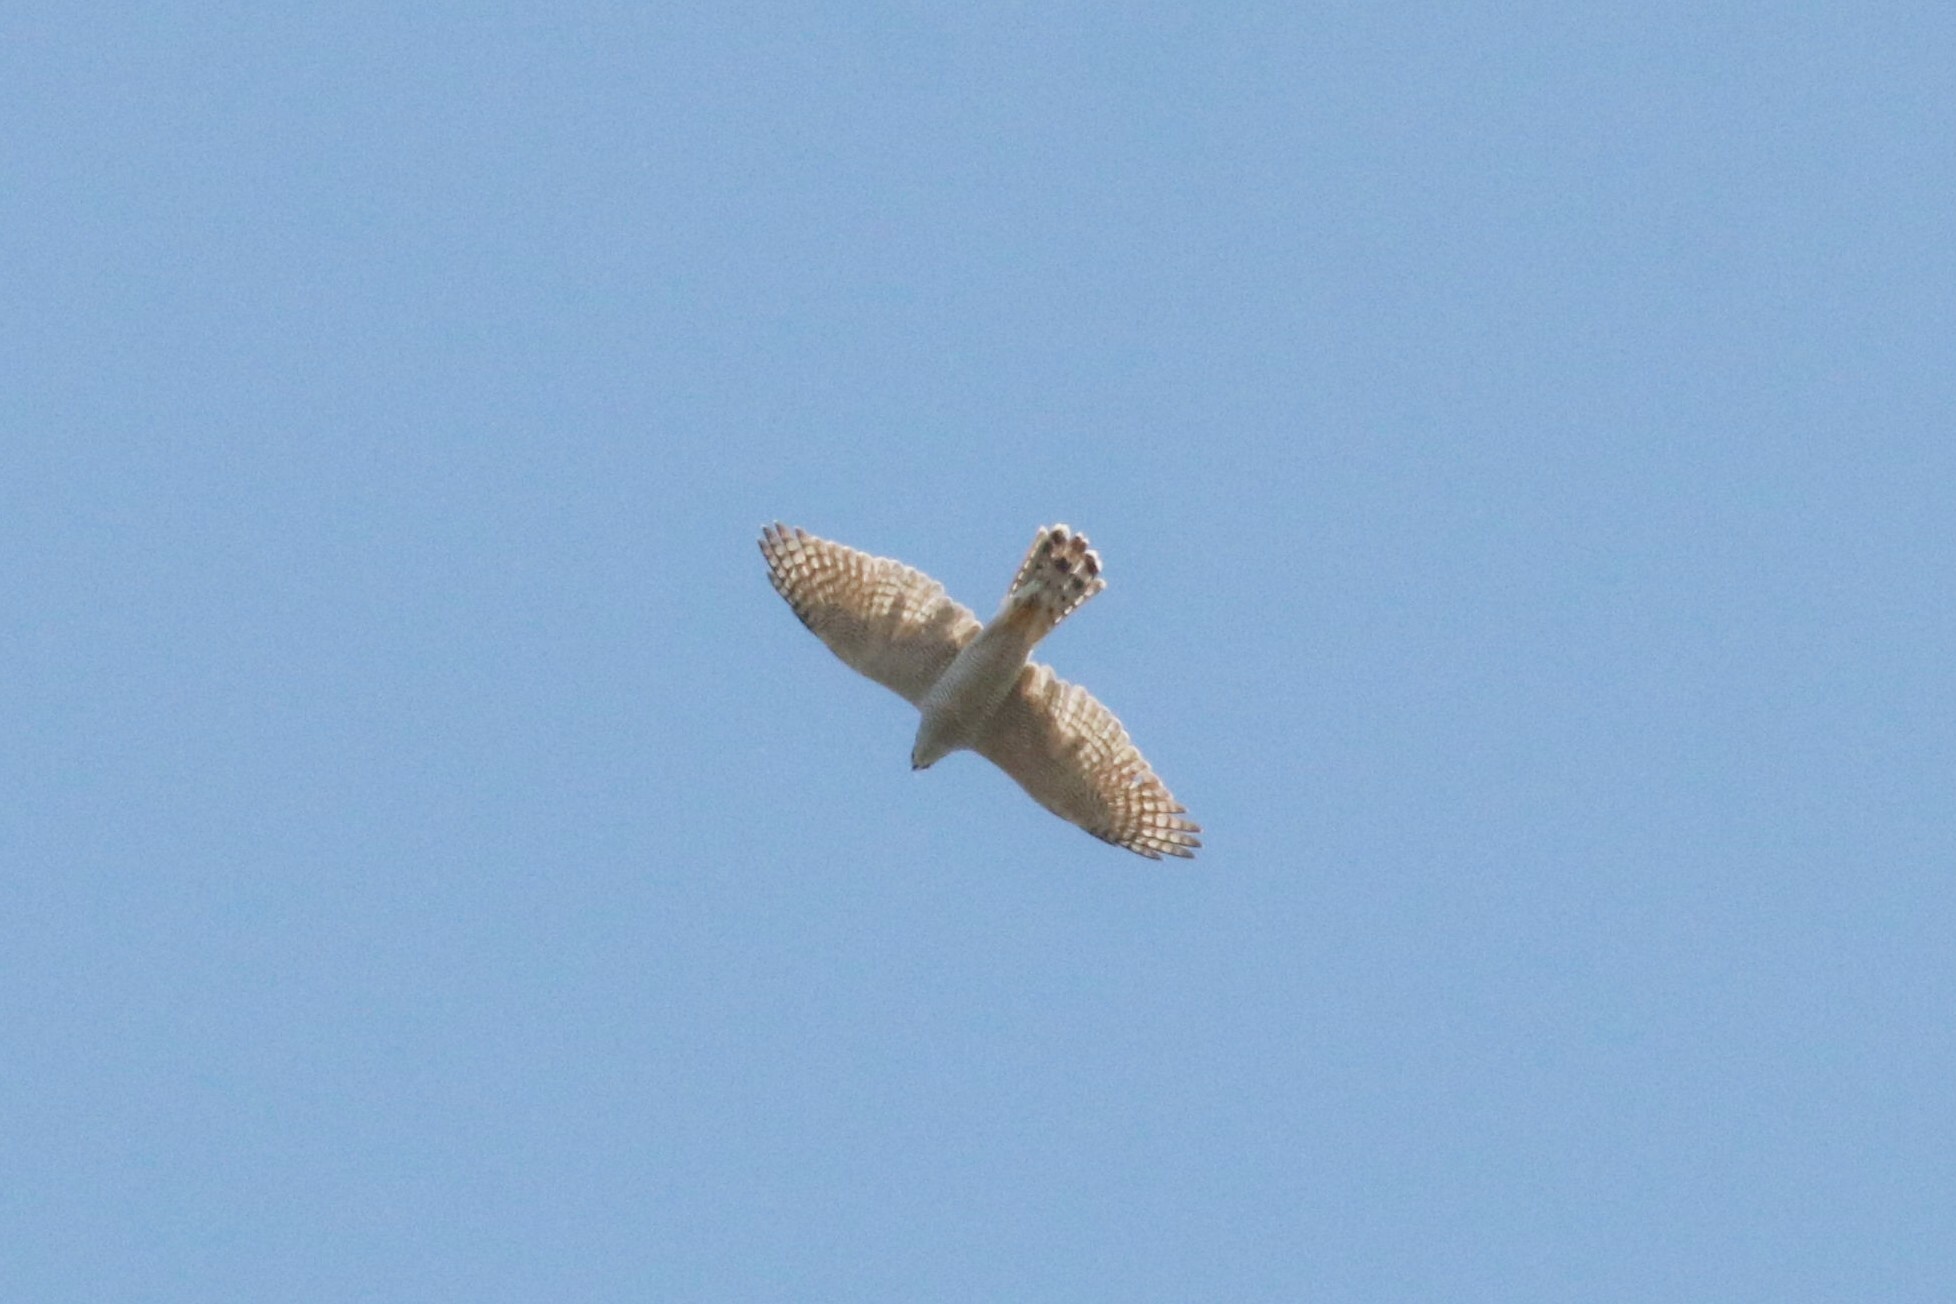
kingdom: Animalia
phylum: Chordata
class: Aves
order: Accipitriformes
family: Accipitridae
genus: Accipiter
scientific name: Accipiter gentilis
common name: Northern goshawk
